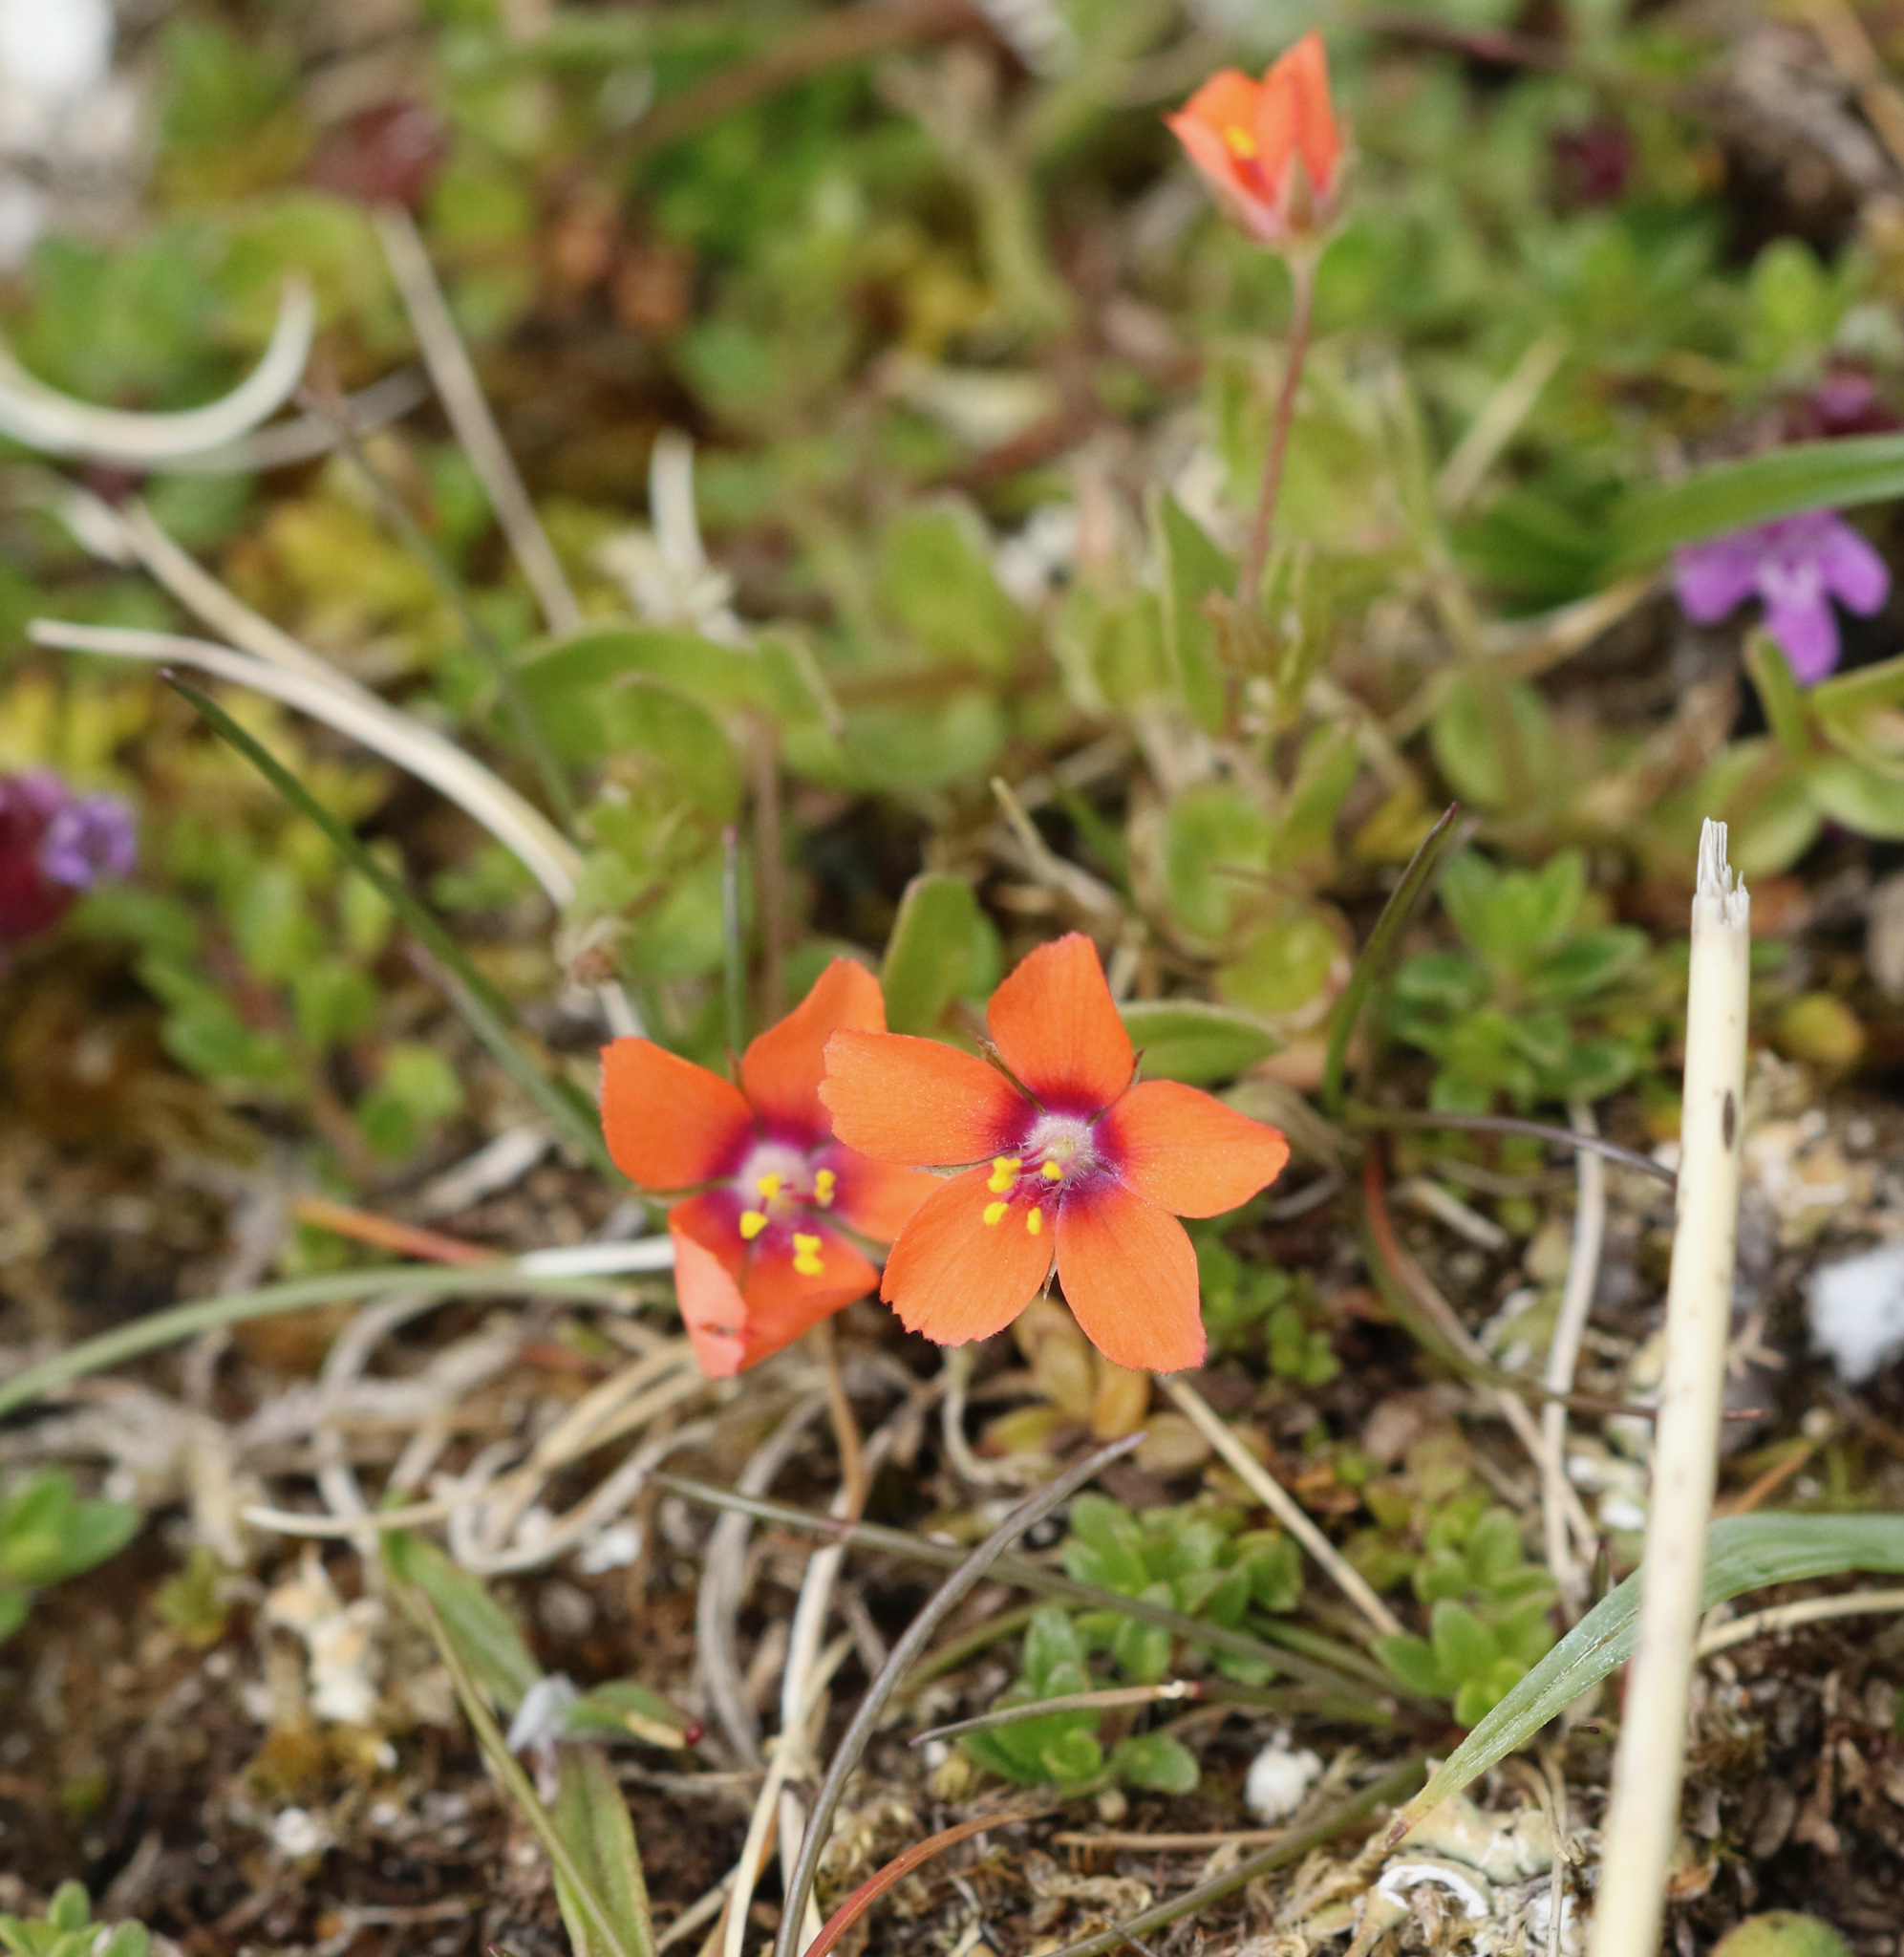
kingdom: Plantae
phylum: Tracheophyta
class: Magnoliopsida
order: Ericales
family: Primulaceae
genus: Lysimachia
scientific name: Lysimachia arvensis
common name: Scarlet pimpernel
